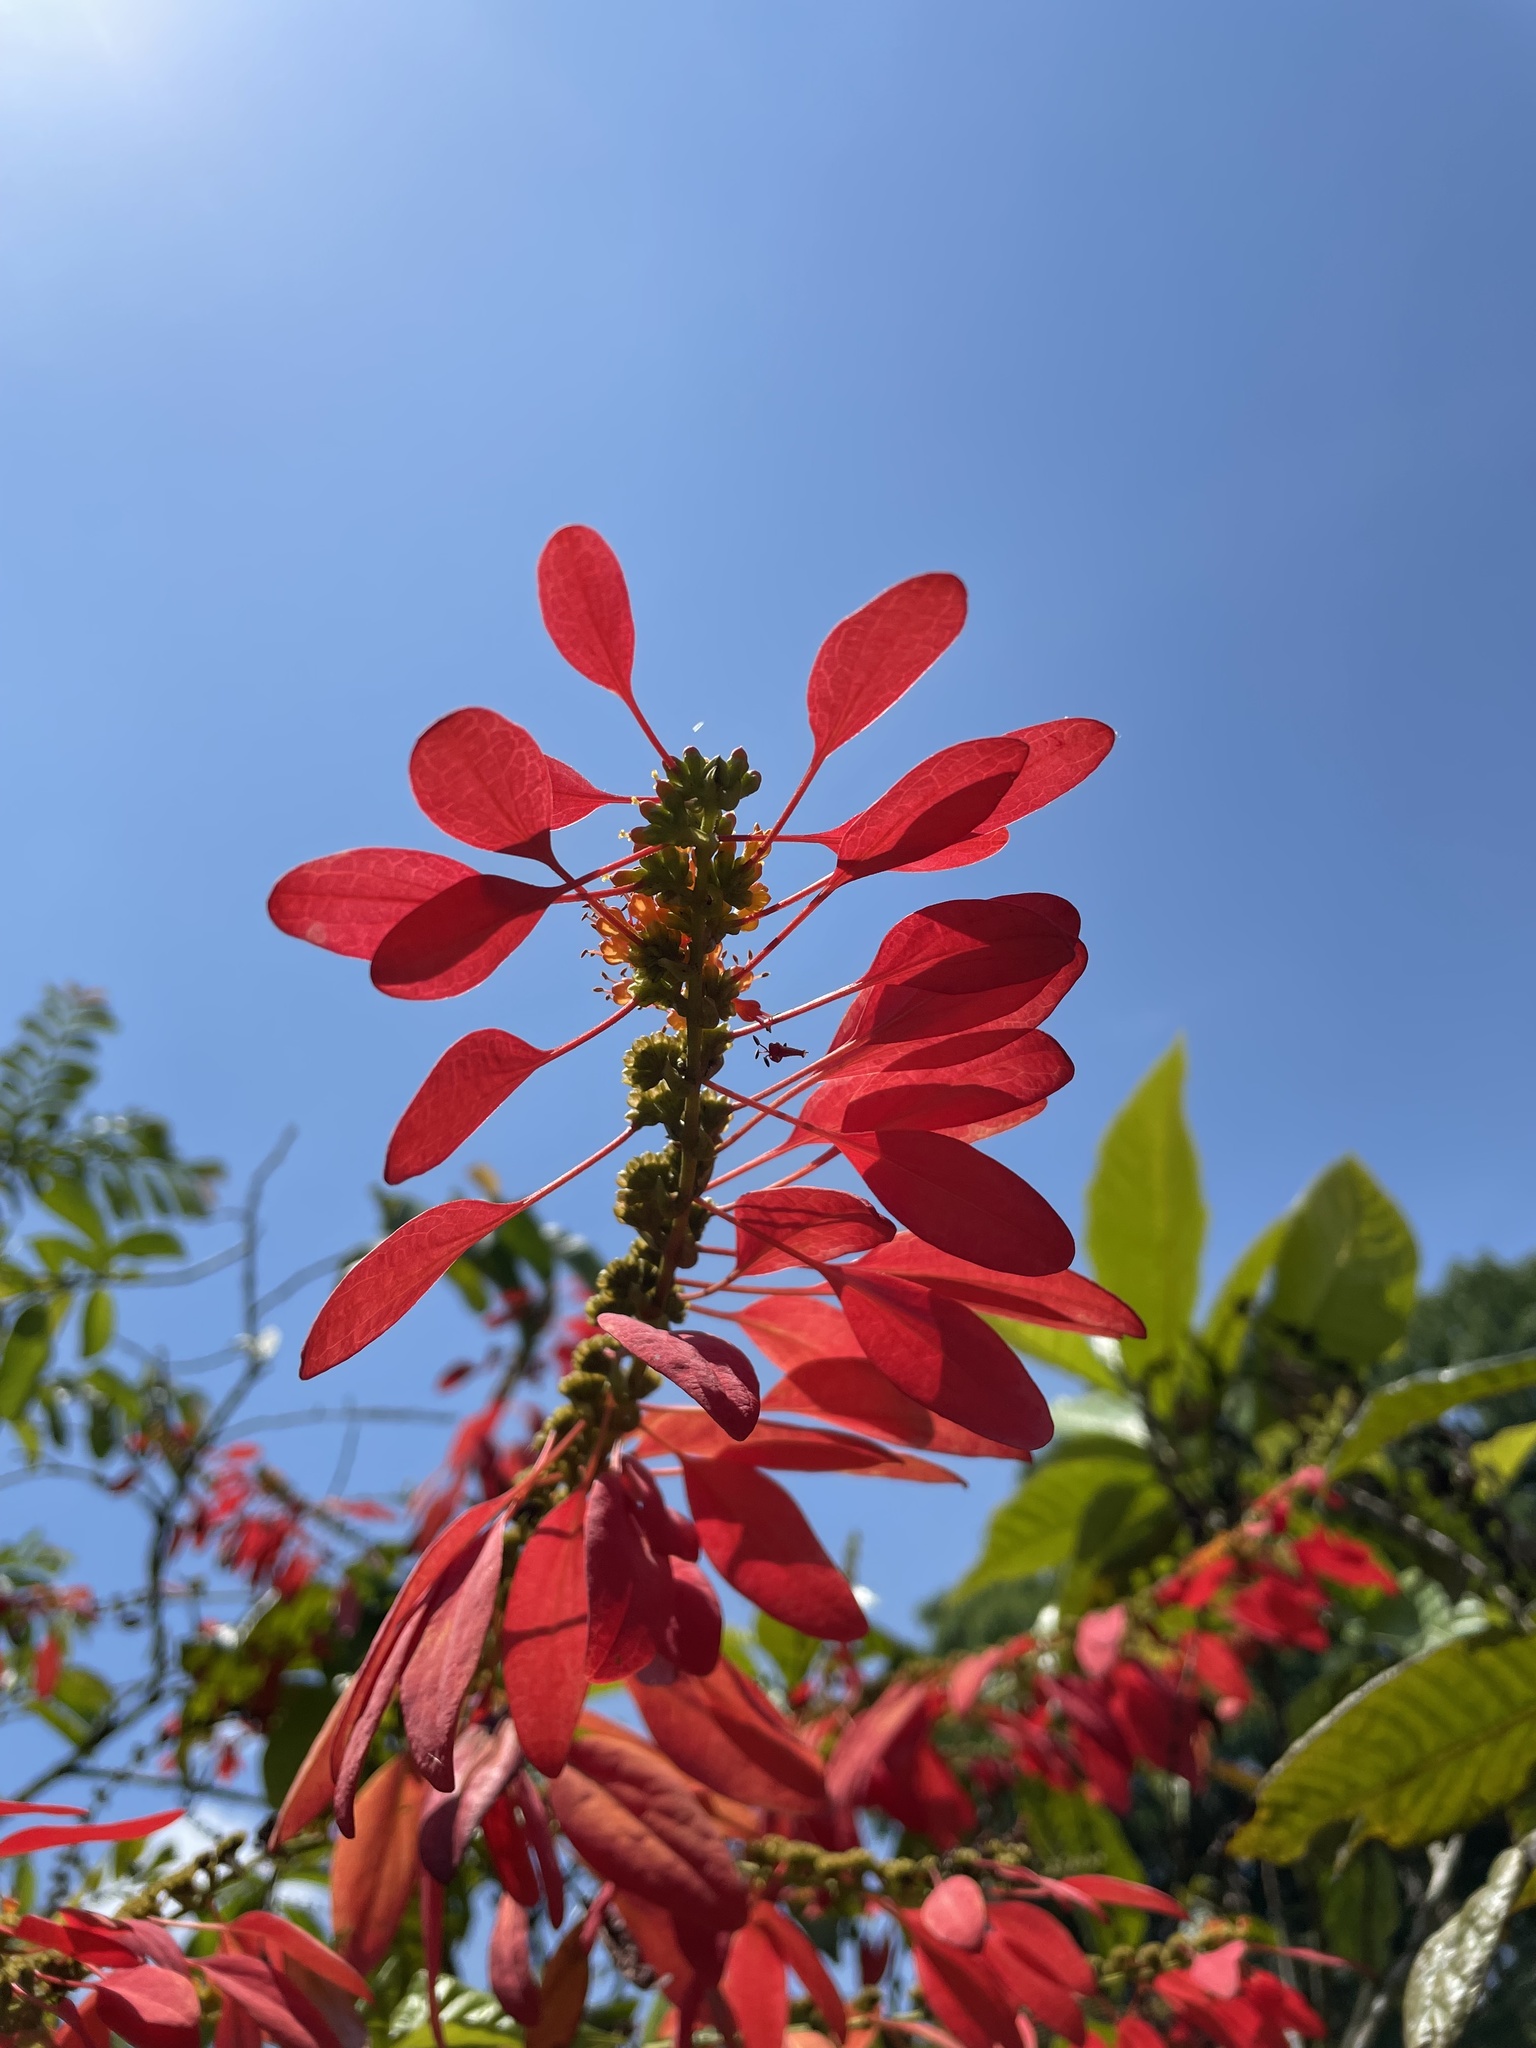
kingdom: Plantae
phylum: Tracheophyta
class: Magnoliopsida
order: Gentianales
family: Rubiaceae
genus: Warszewiczia
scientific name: Warszewiczia coccinea
